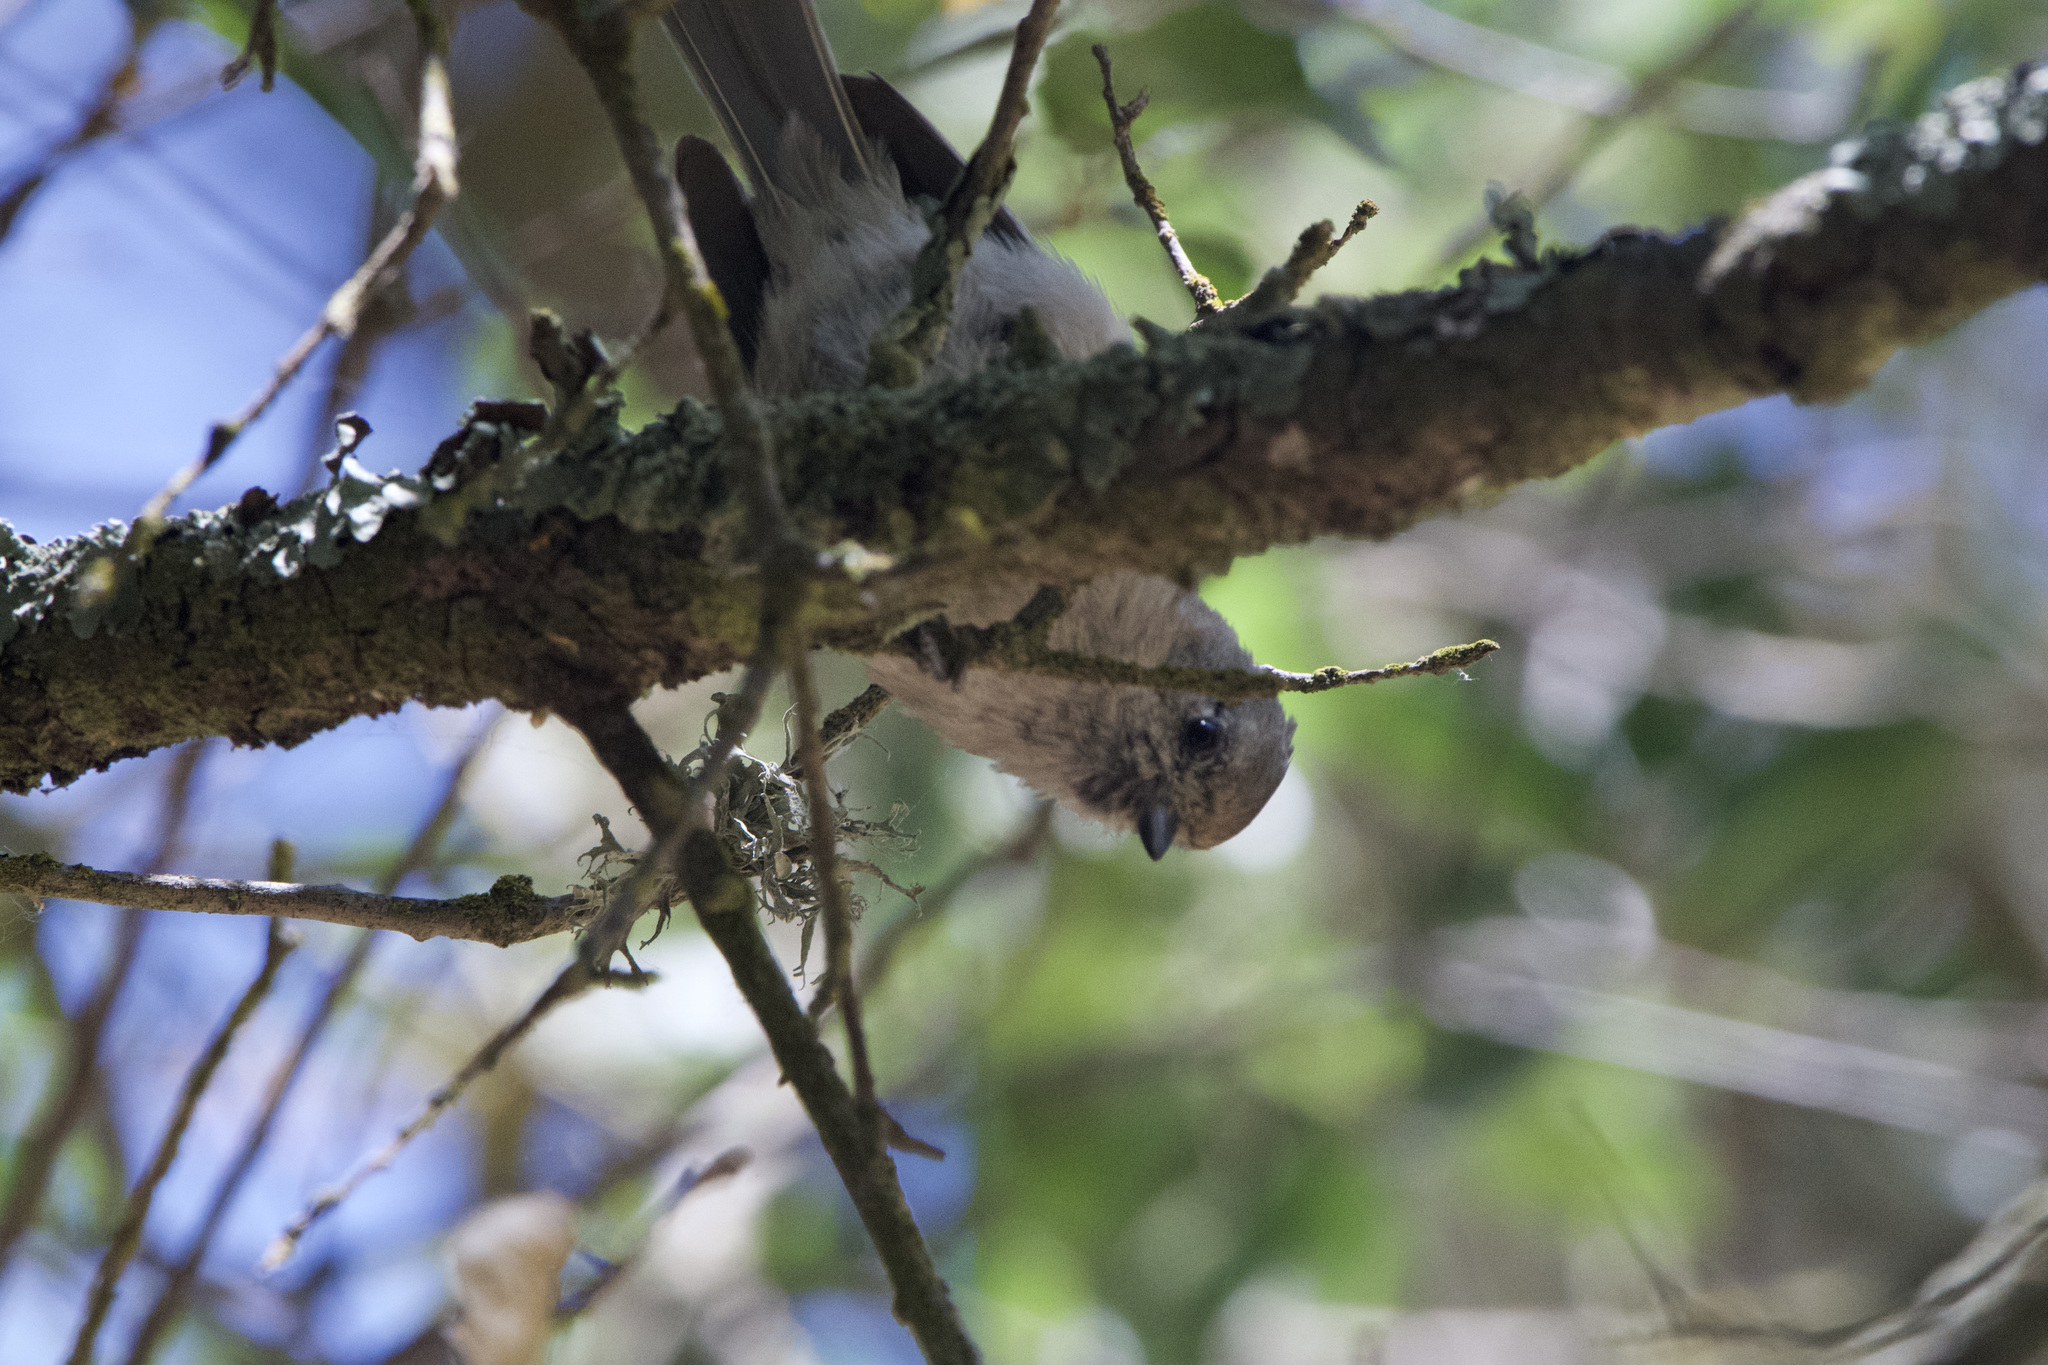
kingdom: Animalia
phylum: Chordata
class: Aves
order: Passeriformes
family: Aegithalidae
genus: Psaltriparus
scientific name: Psaltriparus minimus
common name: American bushtit
